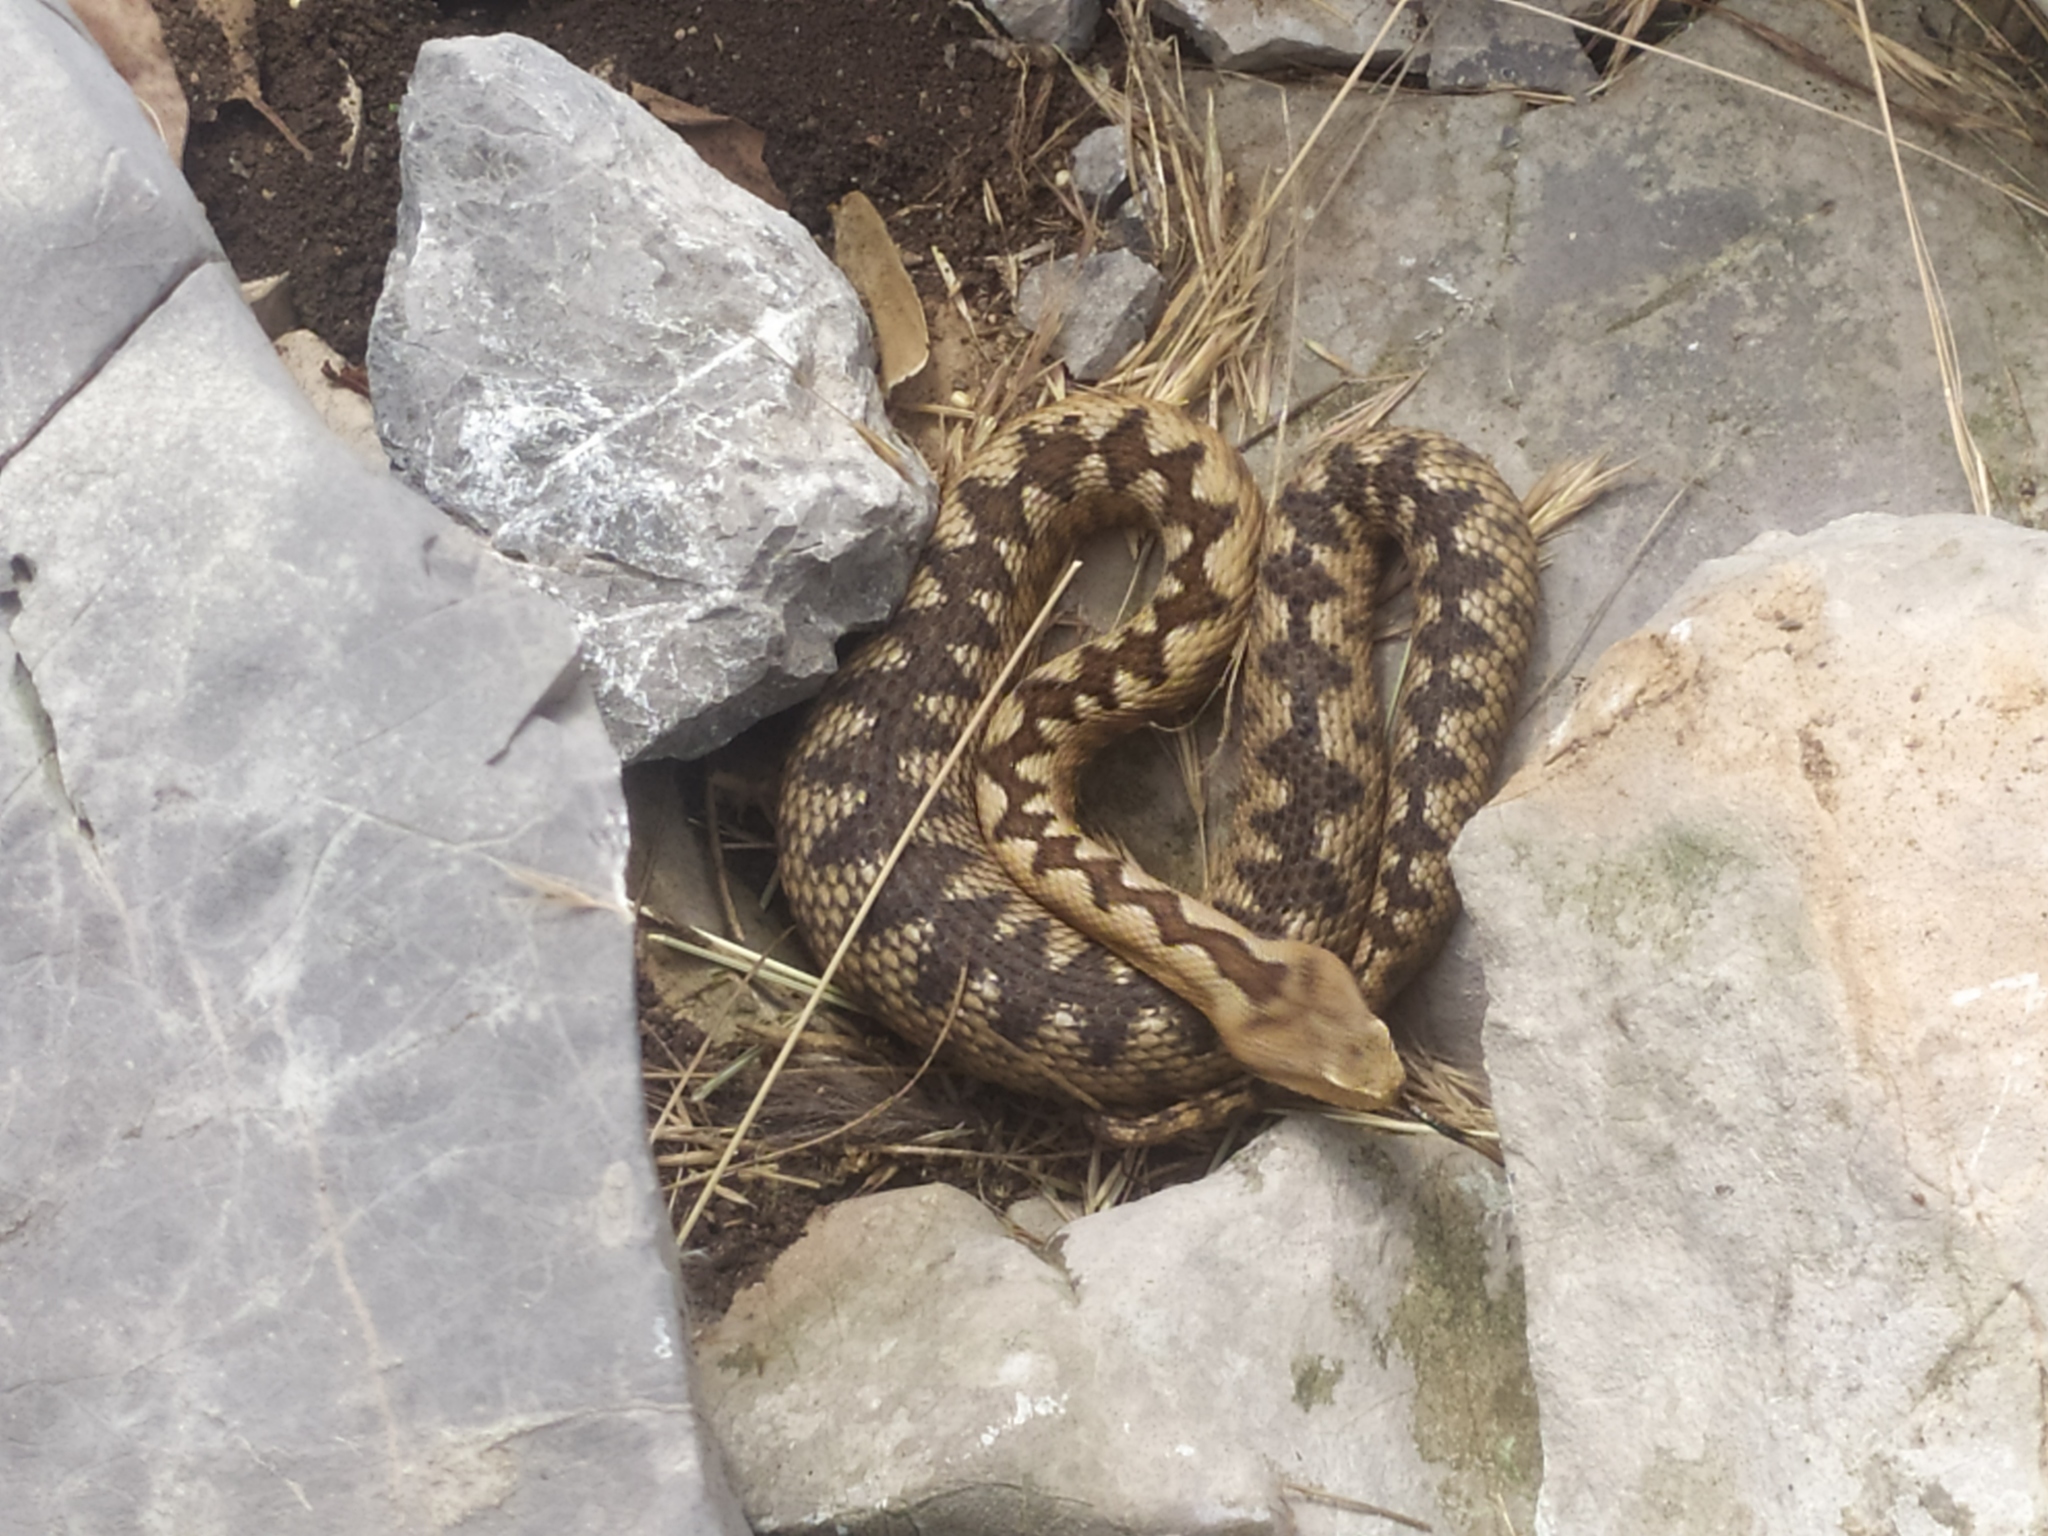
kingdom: Animalia
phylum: Chordata
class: Squamata
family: Viperidae
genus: Vipera
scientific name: Vipera ammodytes
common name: Sand viper
